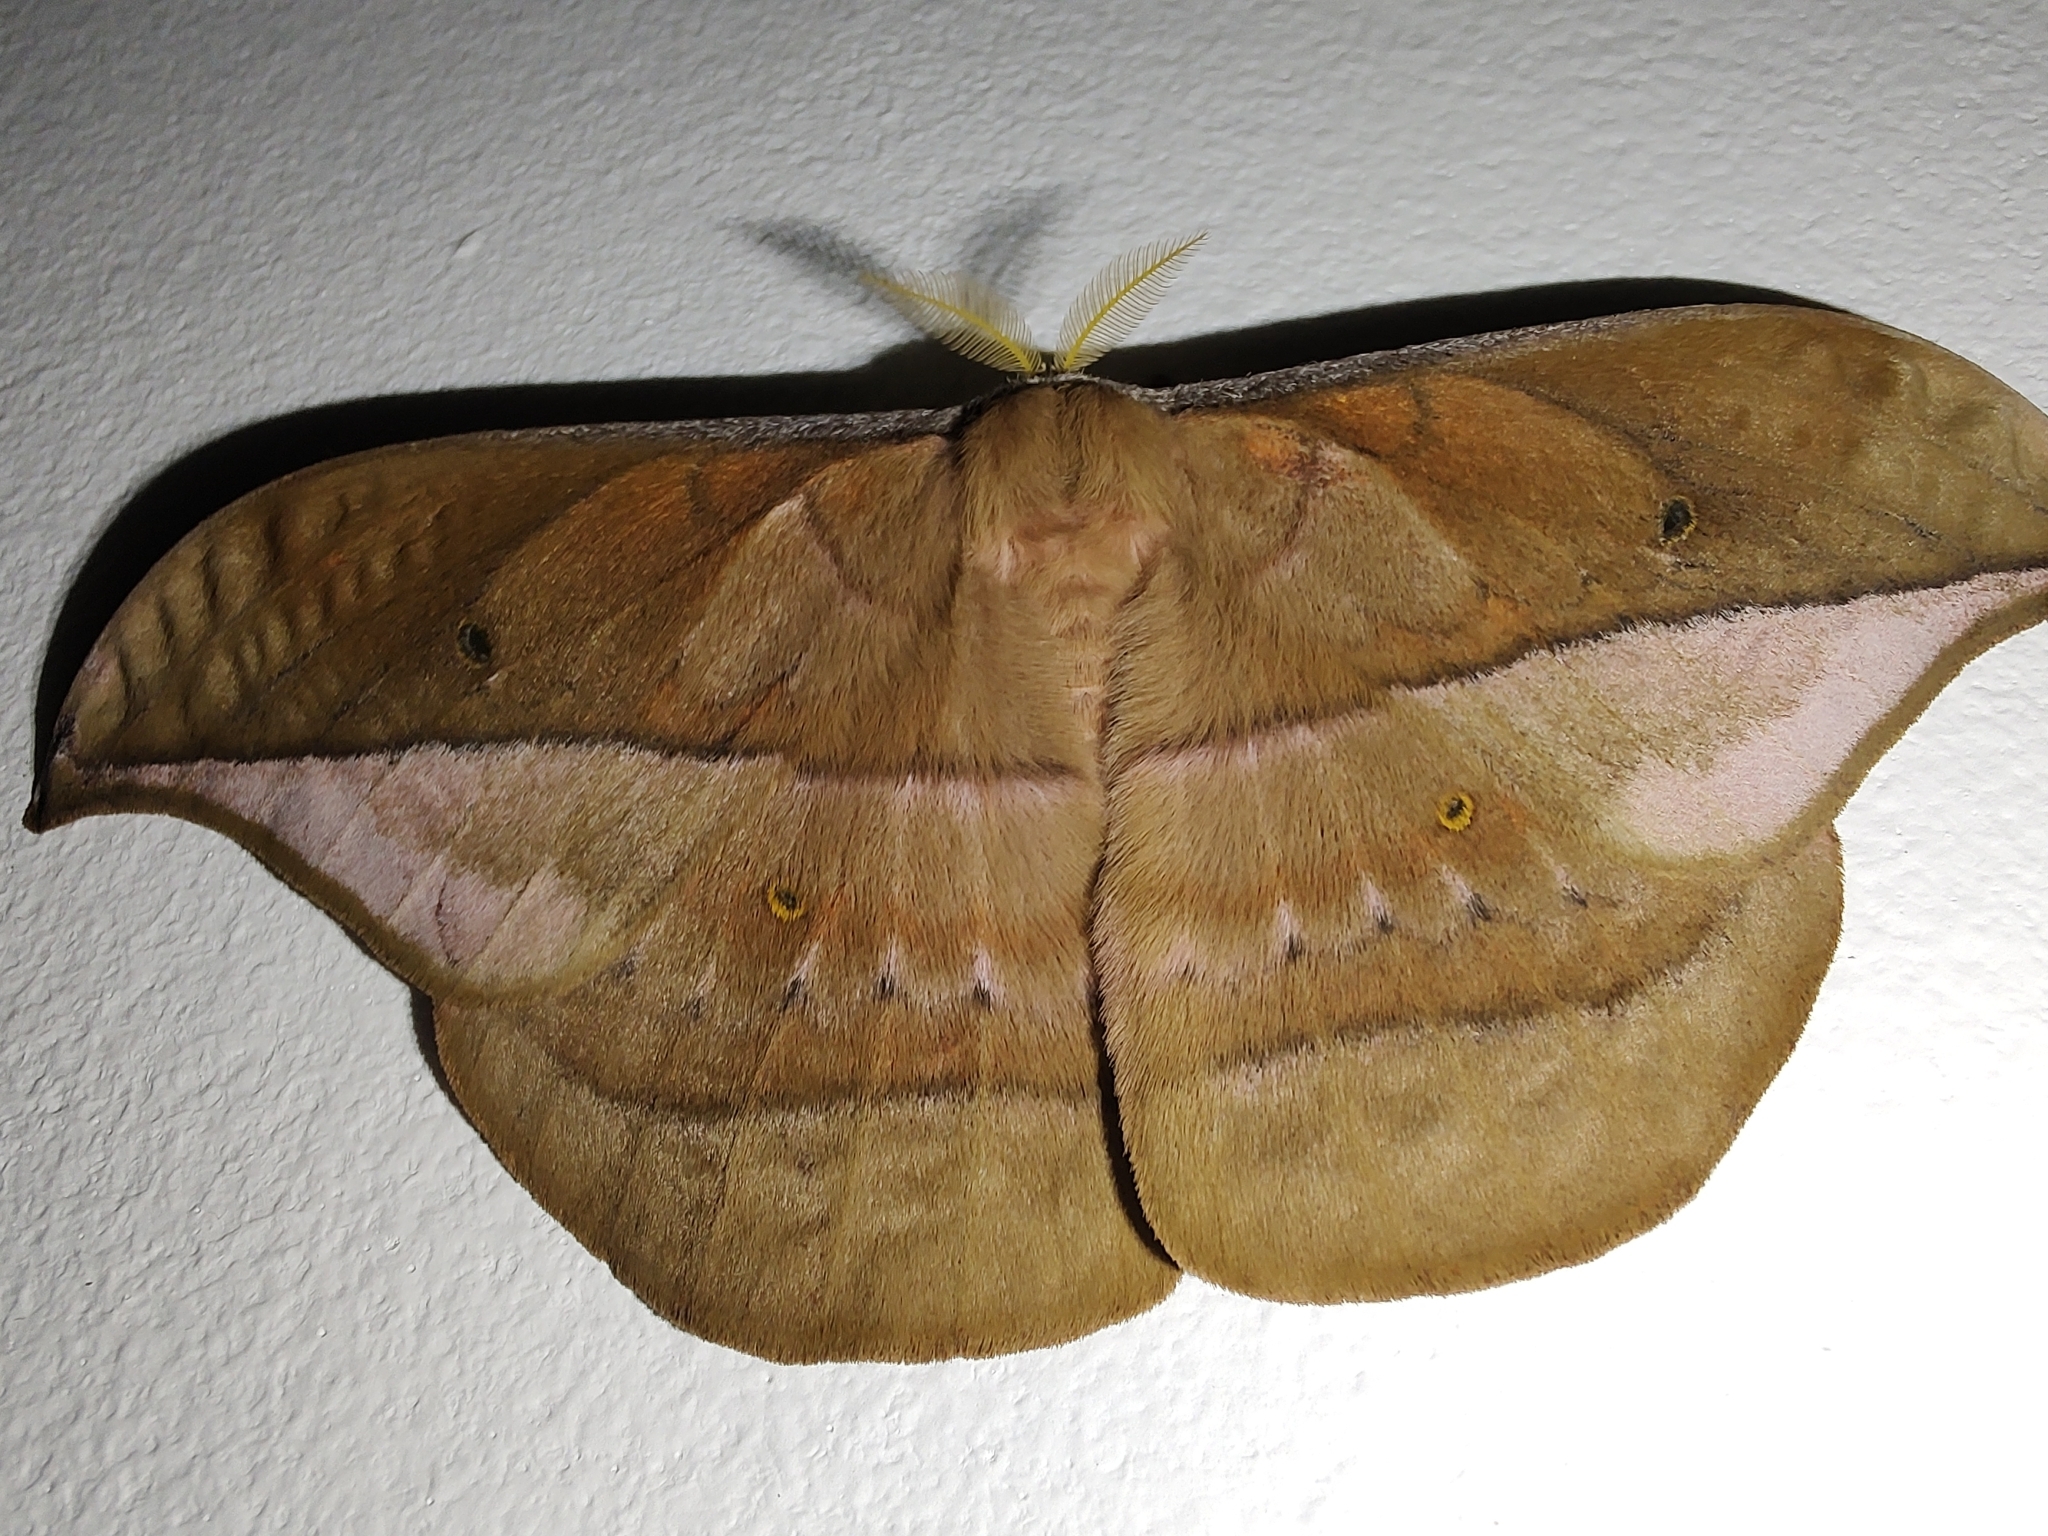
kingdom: Animalia
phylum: Arthropoda
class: Insecta
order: Lepidoptera
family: Saturniidae
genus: Copaxa
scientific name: Copaxa decrescens
